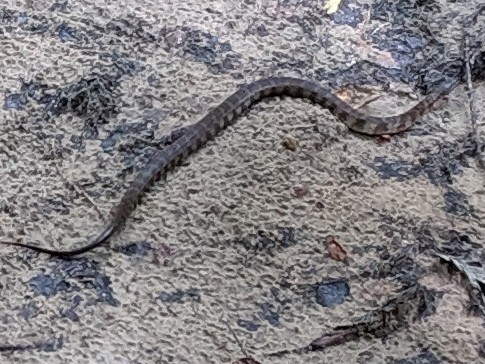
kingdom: Animalia
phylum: Chordata
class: Squamata
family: Colubridae
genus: Nerodia
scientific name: Nerodia sipedon
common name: Northern water snake
